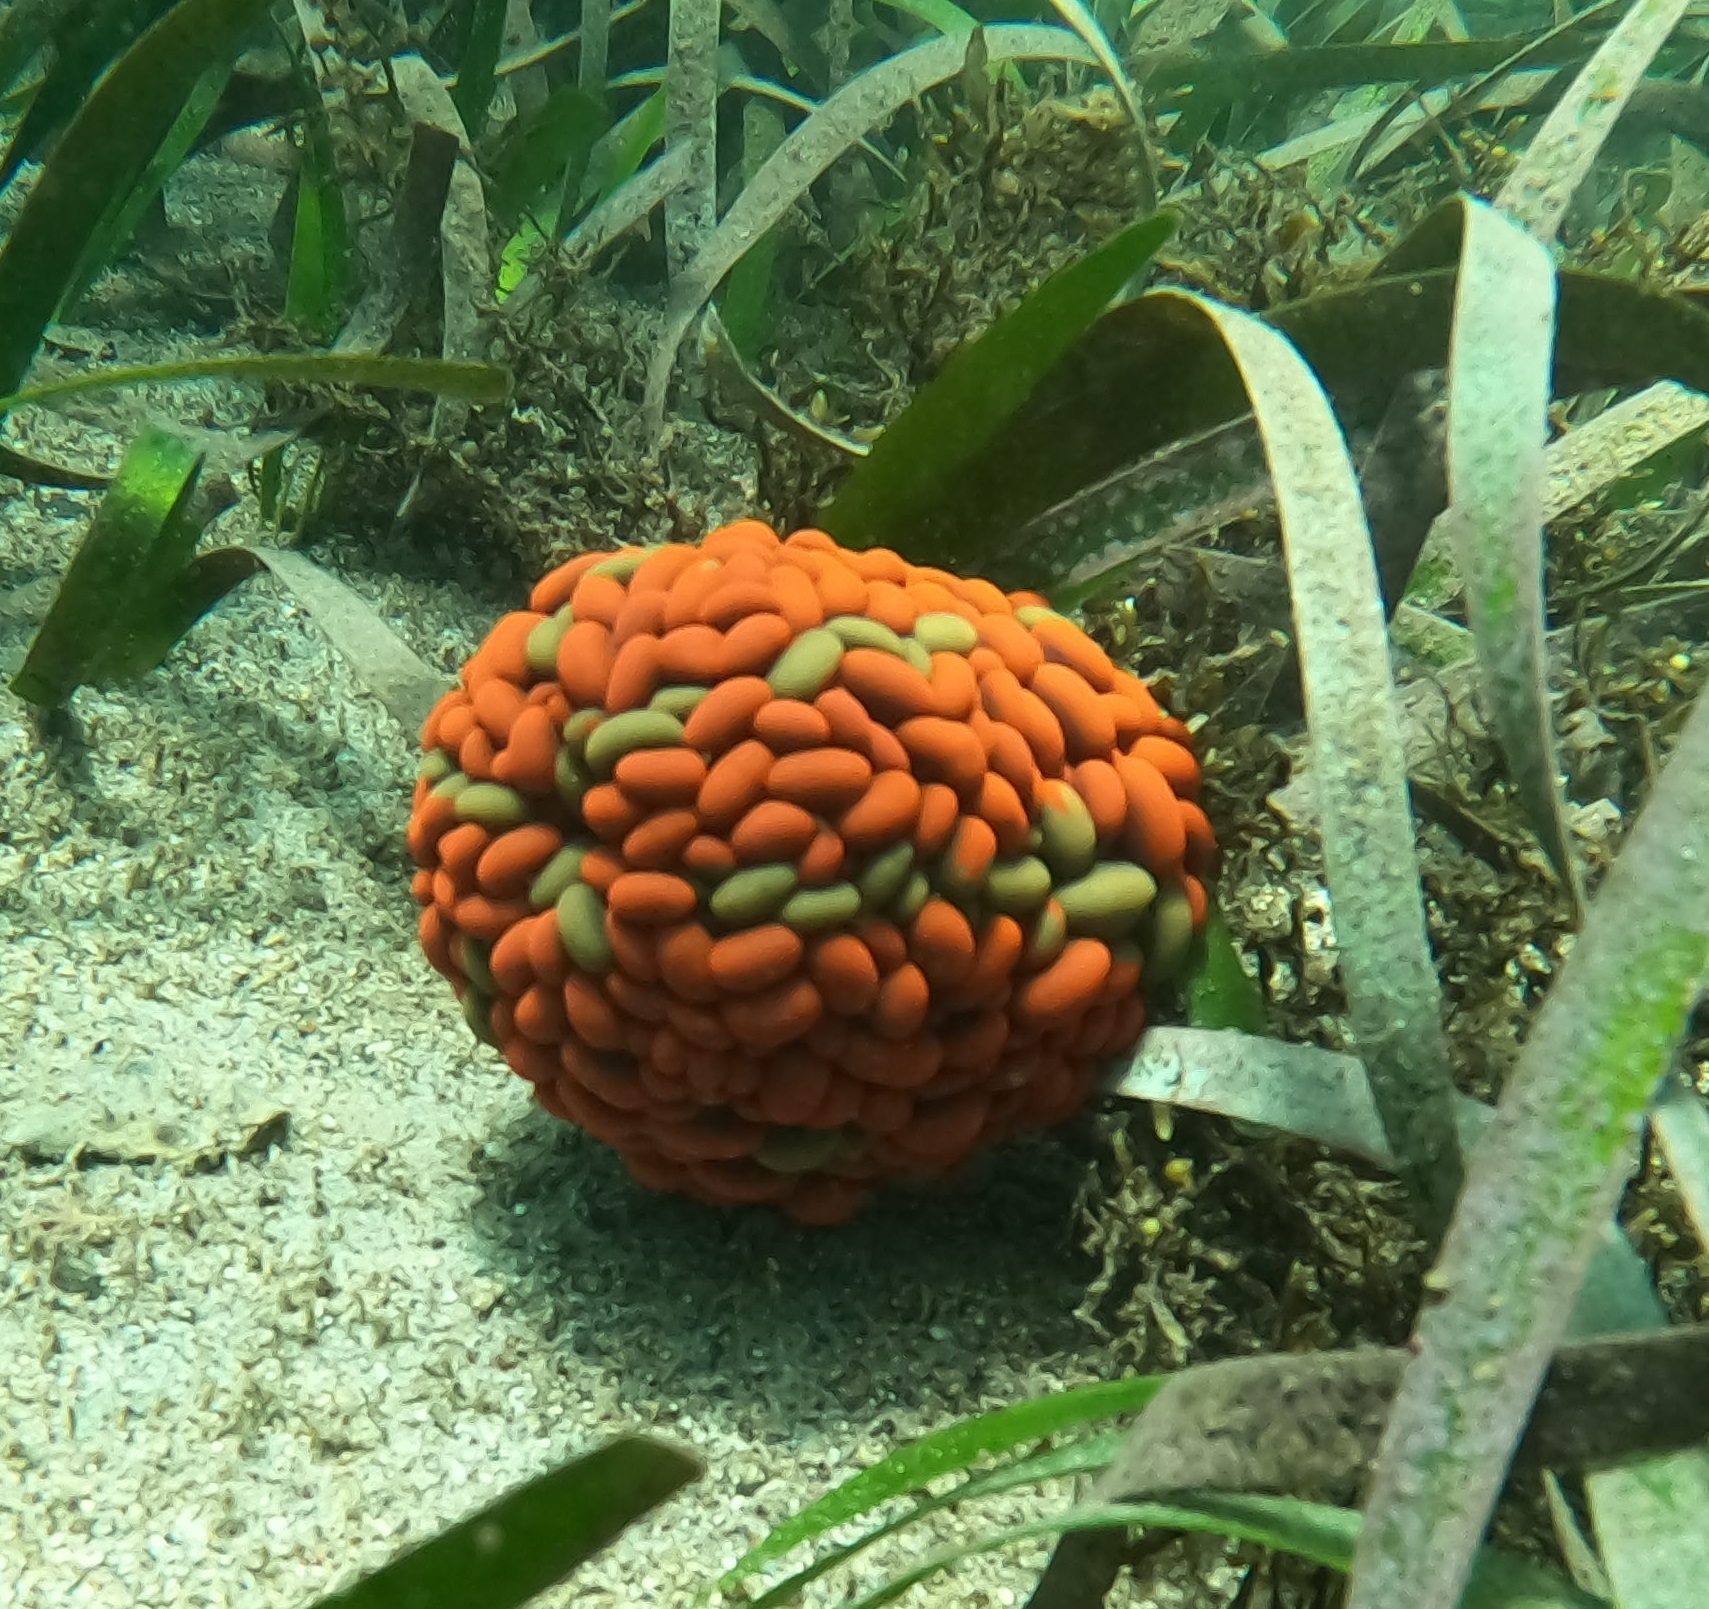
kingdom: Animalia
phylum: Cnidaria
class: Anthozoa
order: Actiniaria
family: Actiniidae
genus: Phlyctenactis
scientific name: Phlyctenactis tuberculosa
